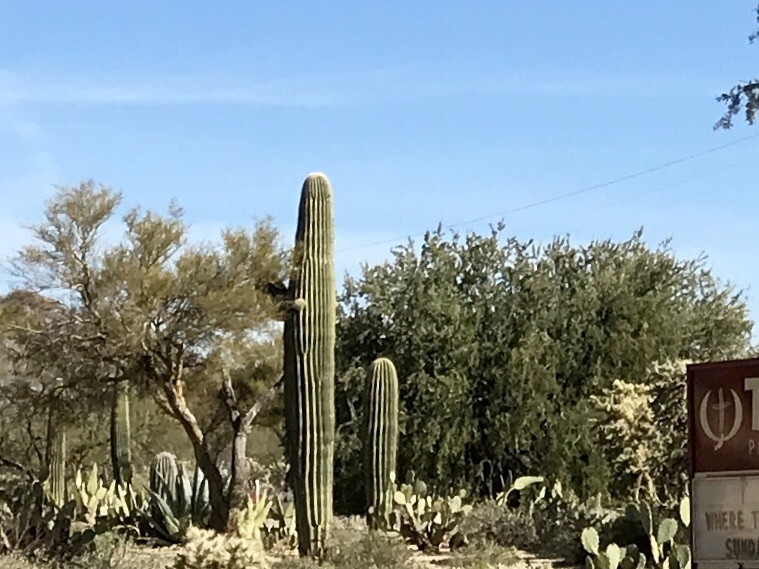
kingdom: Plantae
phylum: Tracheophyta
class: Magnoliopsida
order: Caryophyllales
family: Cactaceae
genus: Carnegiea
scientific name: Carnegiea gigantea
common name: Saguaro
